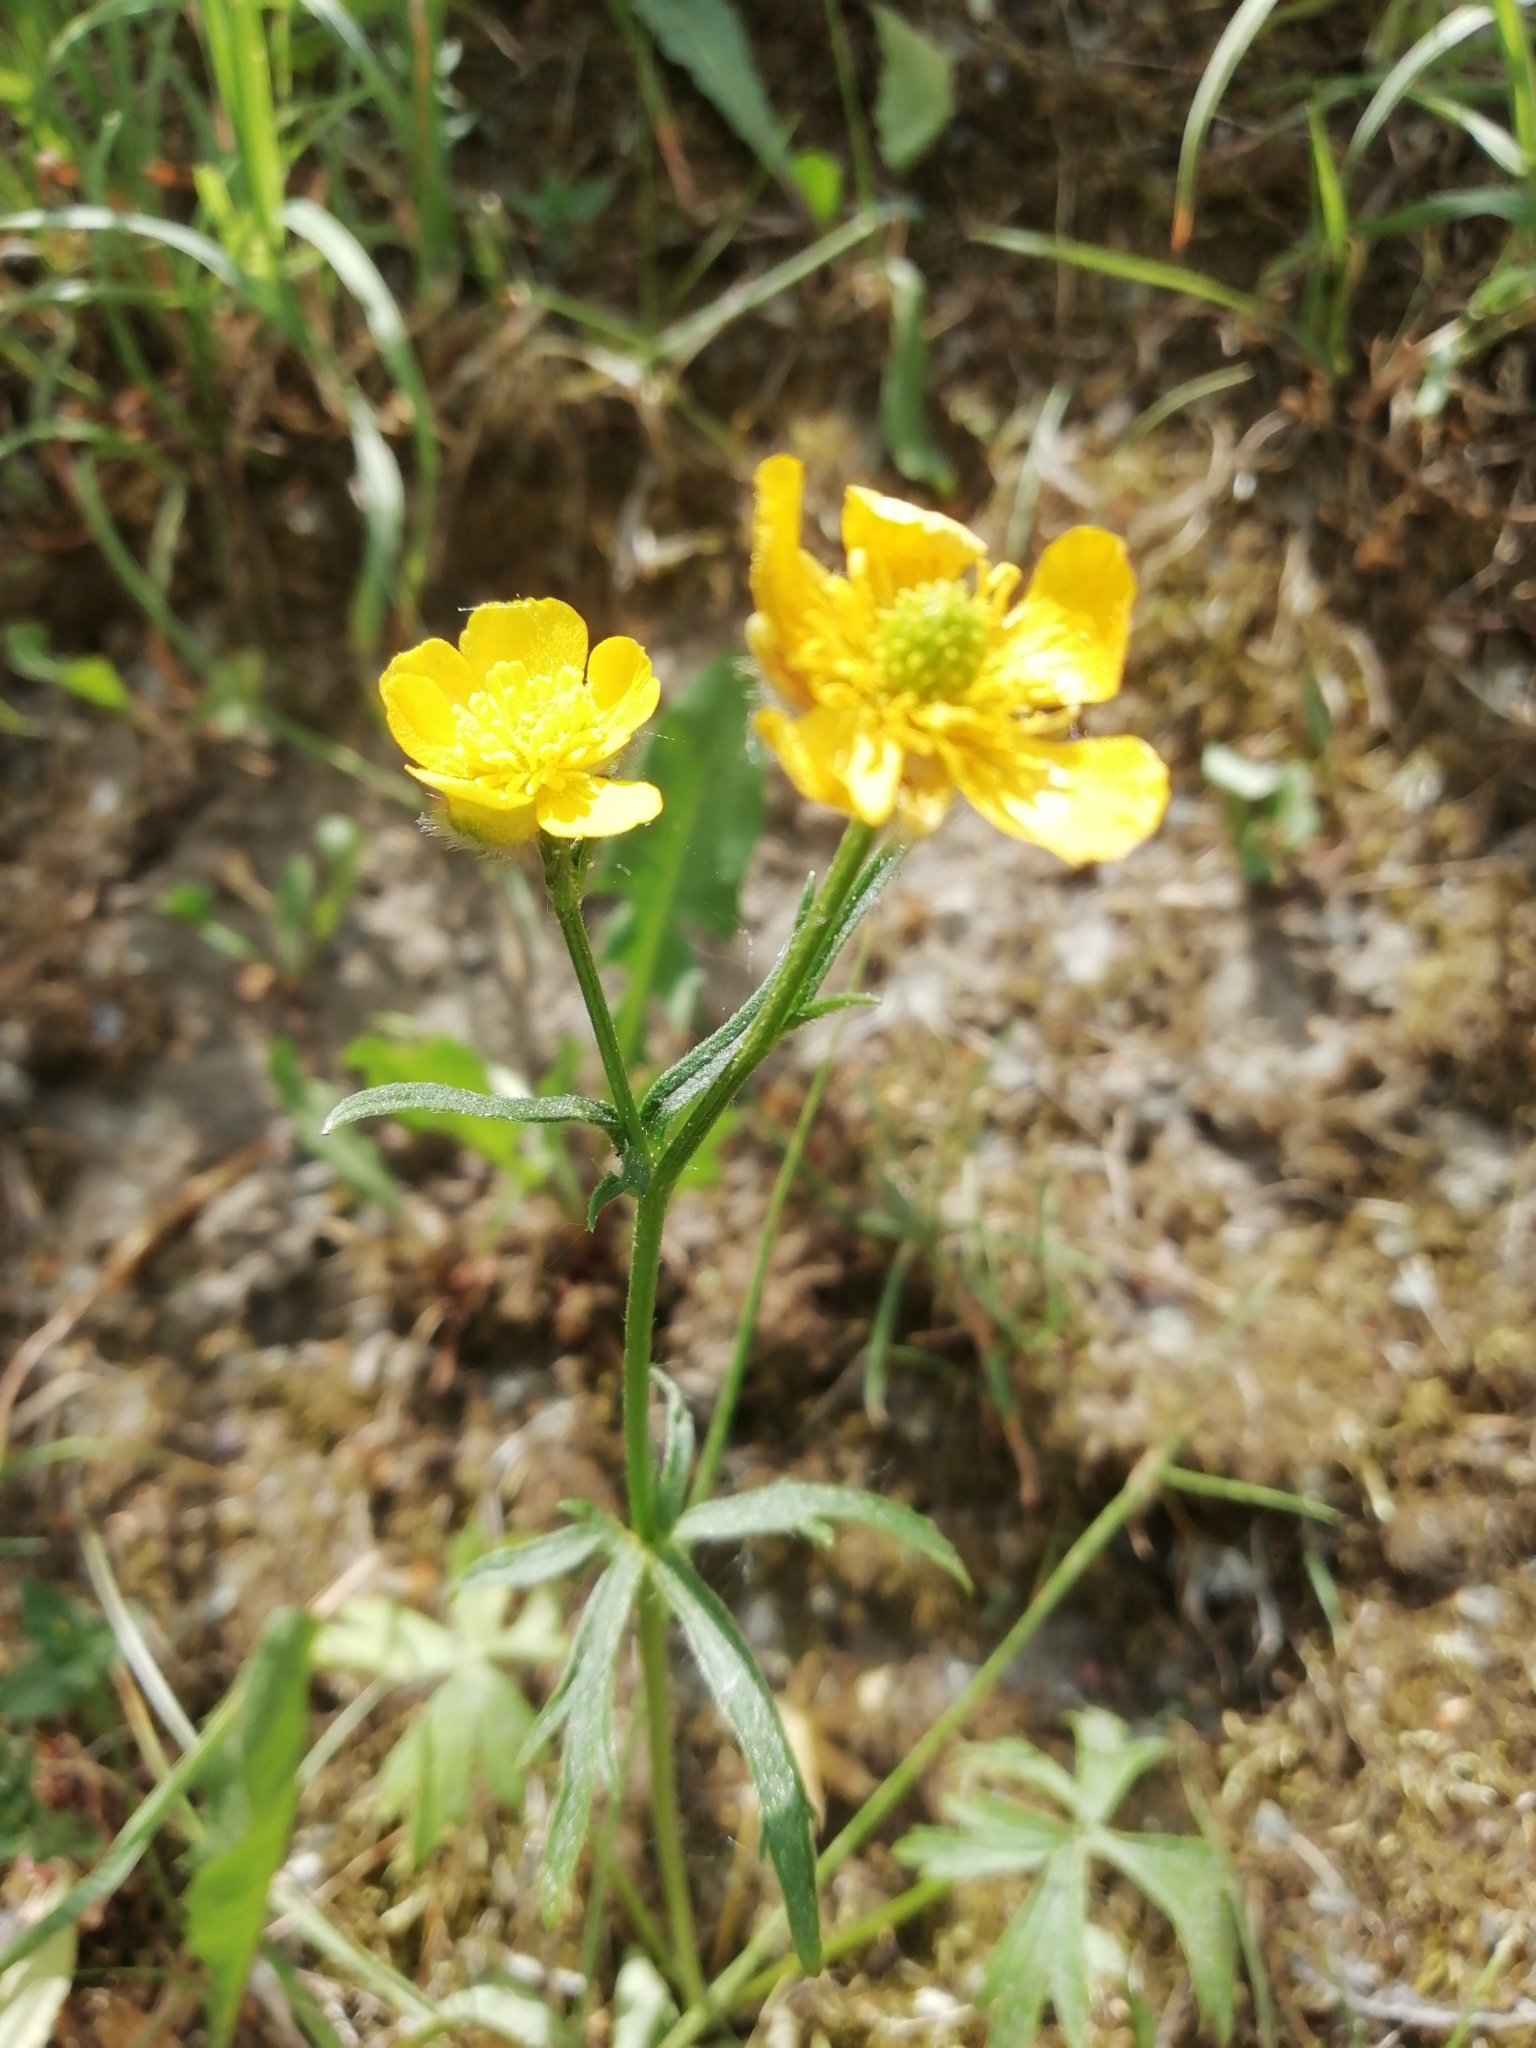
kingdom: Plantae
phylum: Tracheophyta
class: Magnoliopsida
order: Ranunculales
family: Ranunculaceae
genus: Ranunculus
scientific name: Ranunculus polyanthemos
